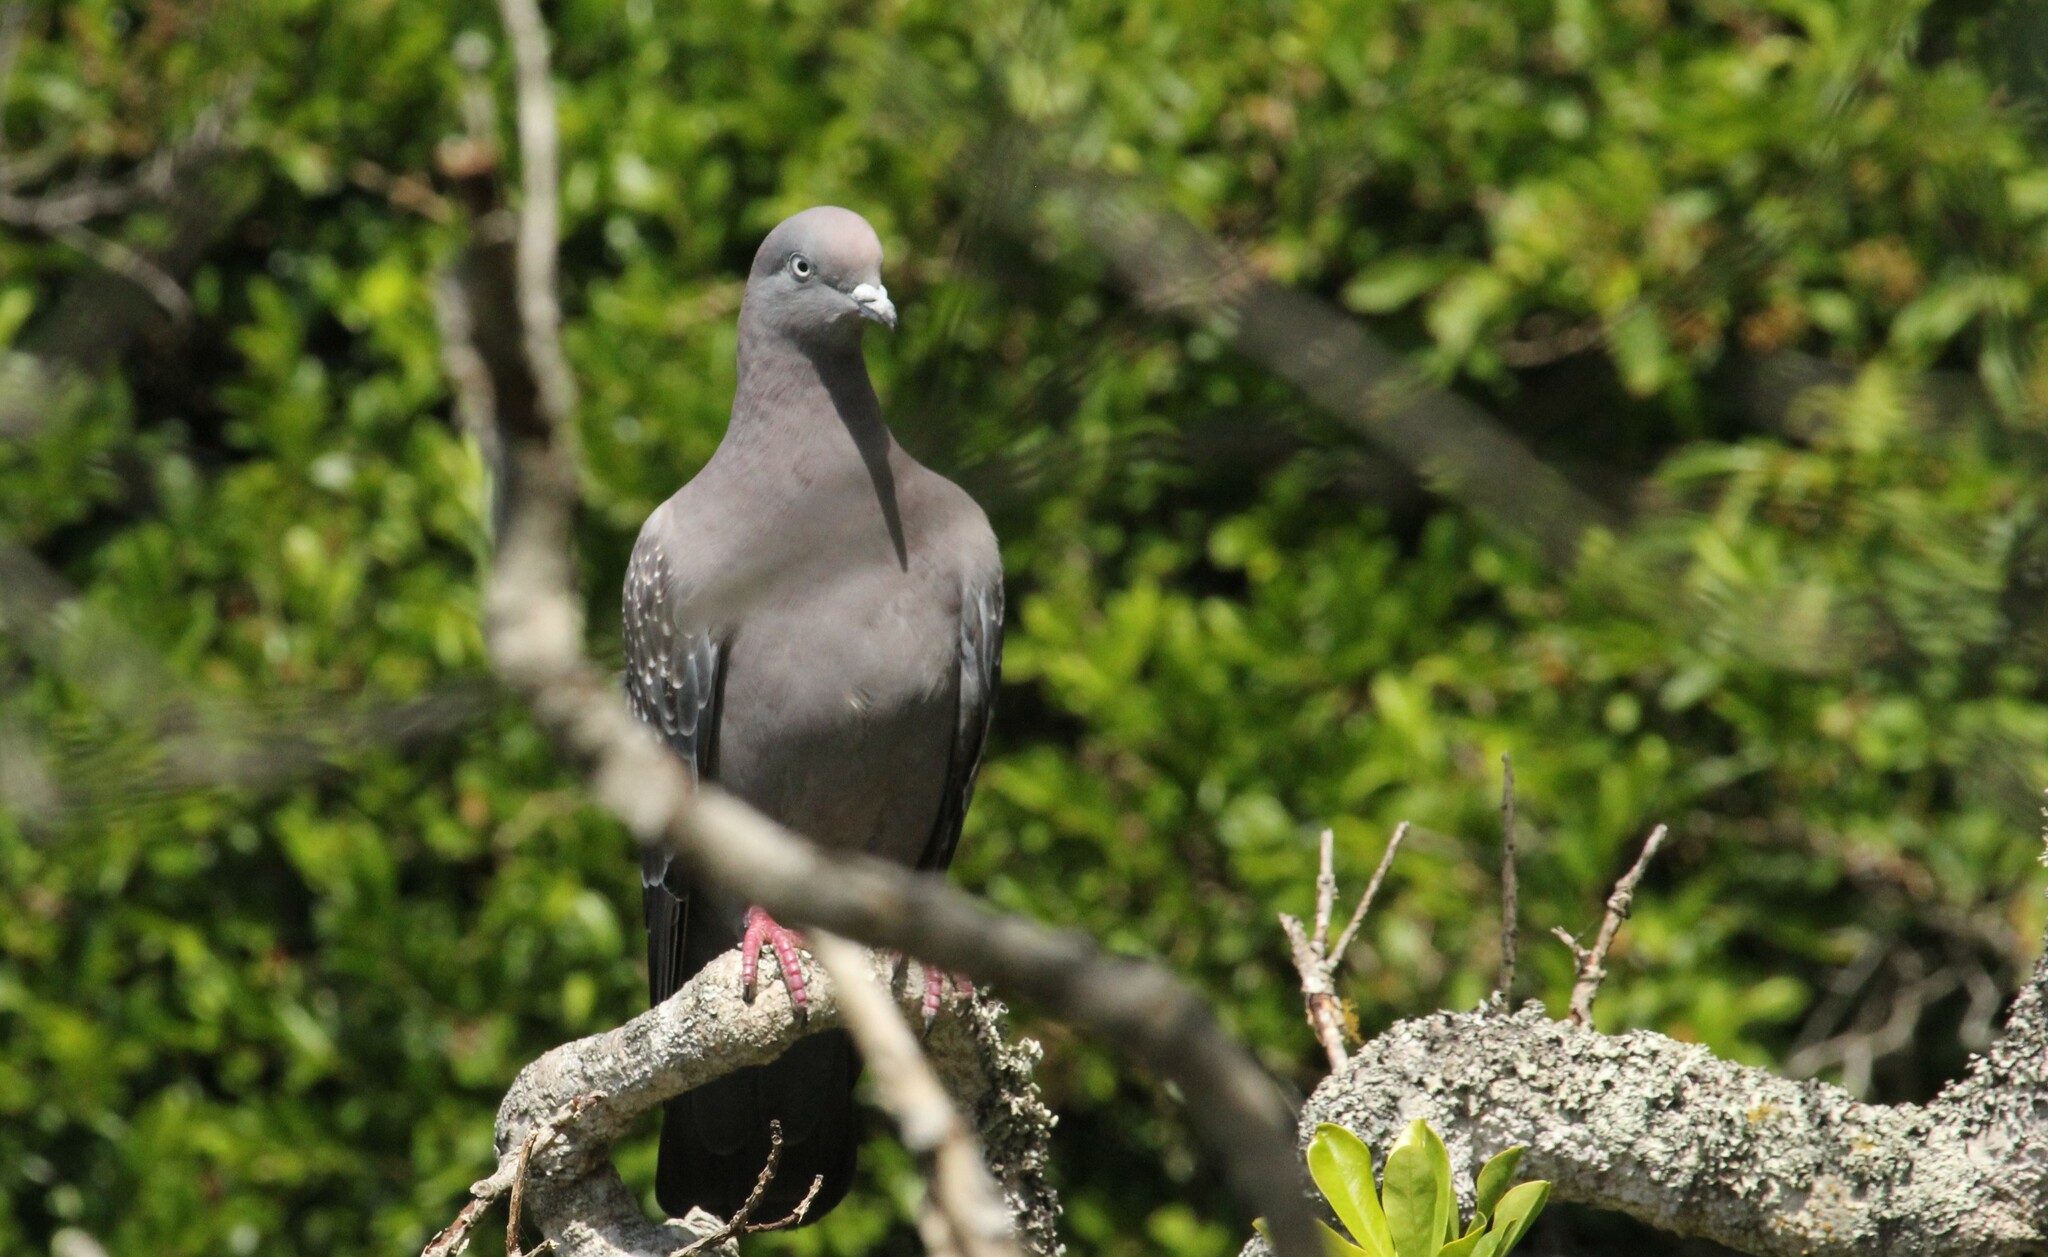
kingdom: Animalia
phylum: Chordata
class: Aves
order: Columbiformes
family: Columbidae
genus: Patagioenas
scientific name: Patagioenas maculosa
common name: Spot-winged pigeon
